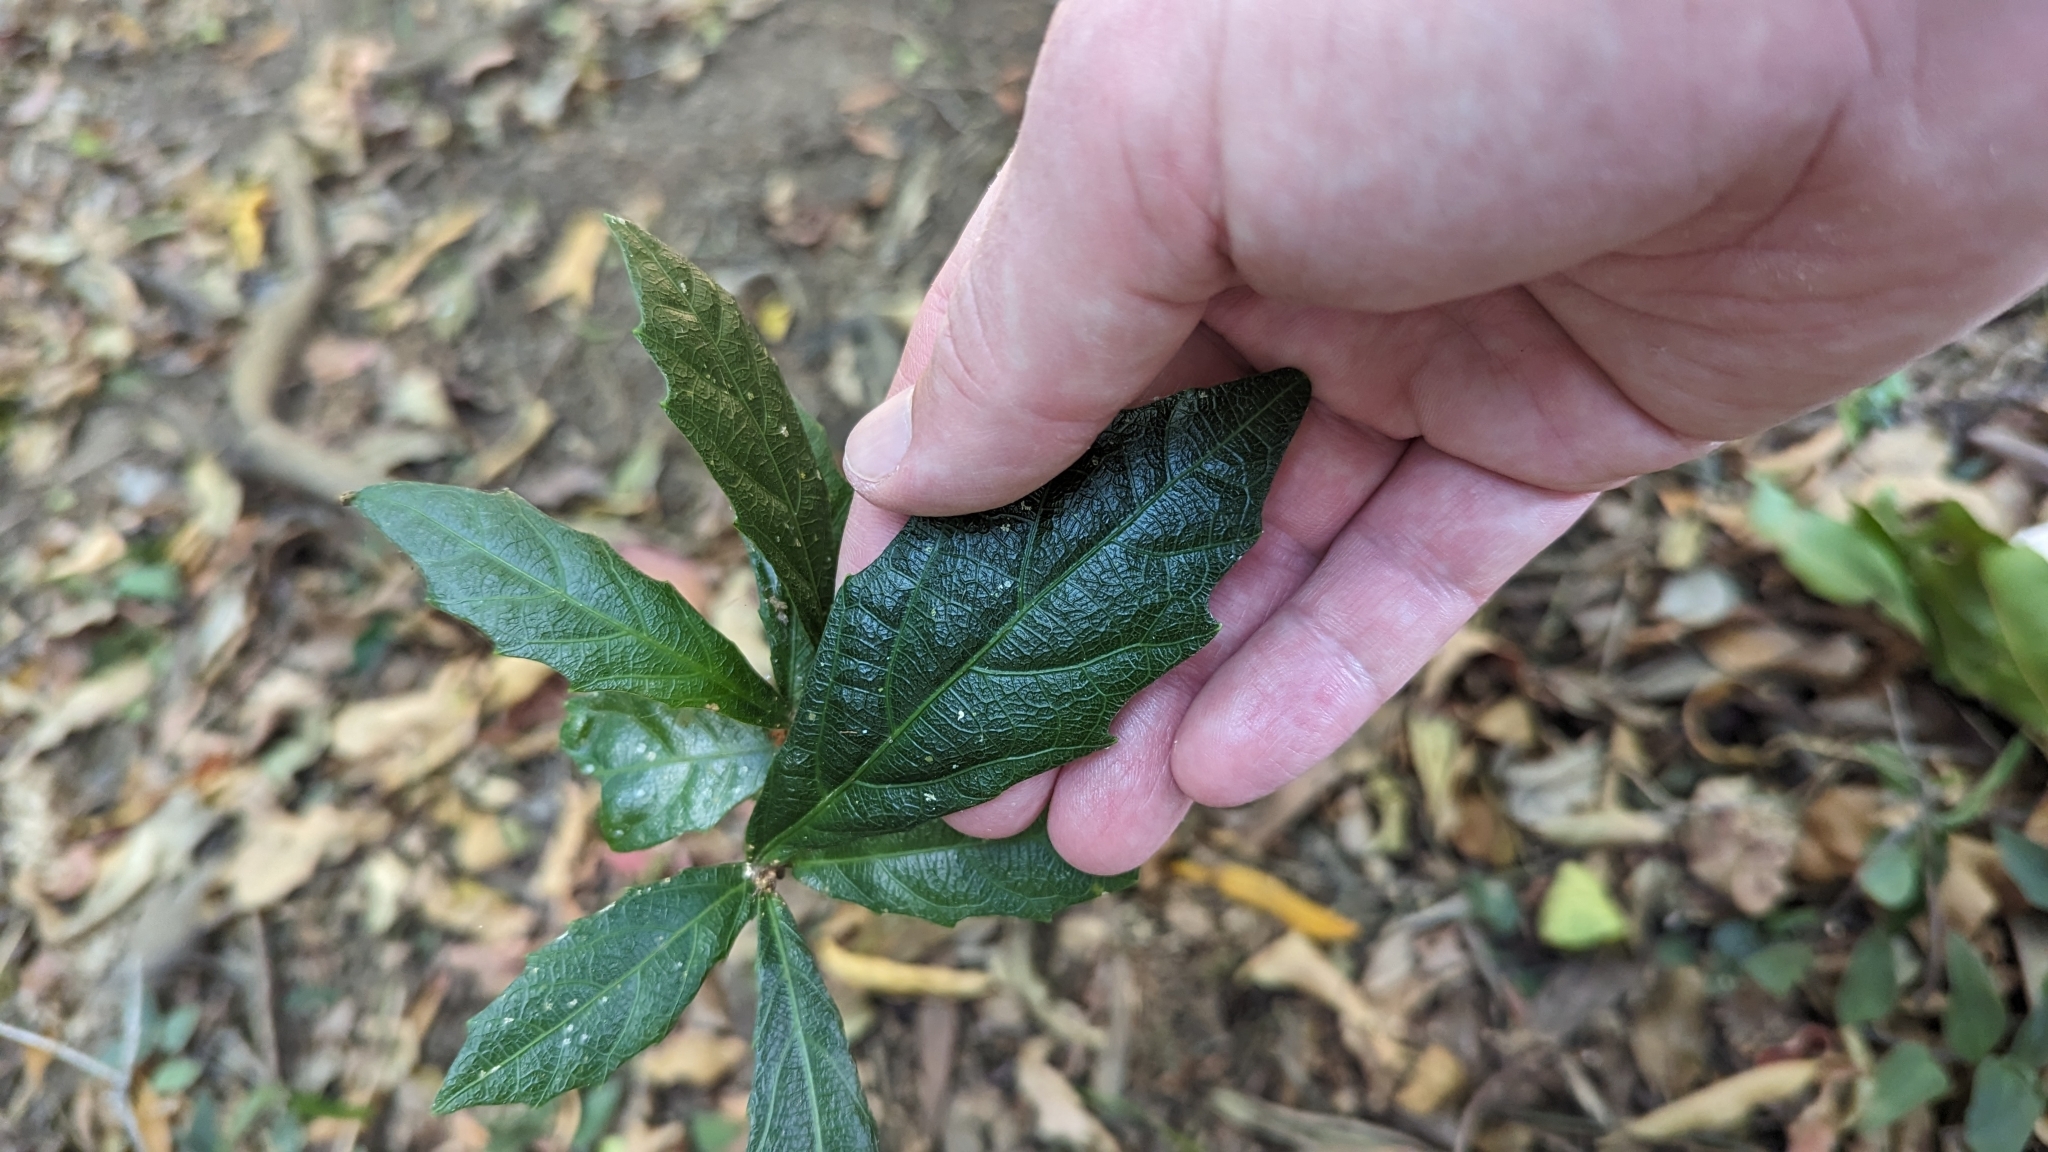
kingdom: Plantae
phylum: Tracheophyta
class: Magnoliopsida
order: Malpighiales
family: Euphorbiaceae
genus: Mallotus
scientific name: Mallotus megadontus
